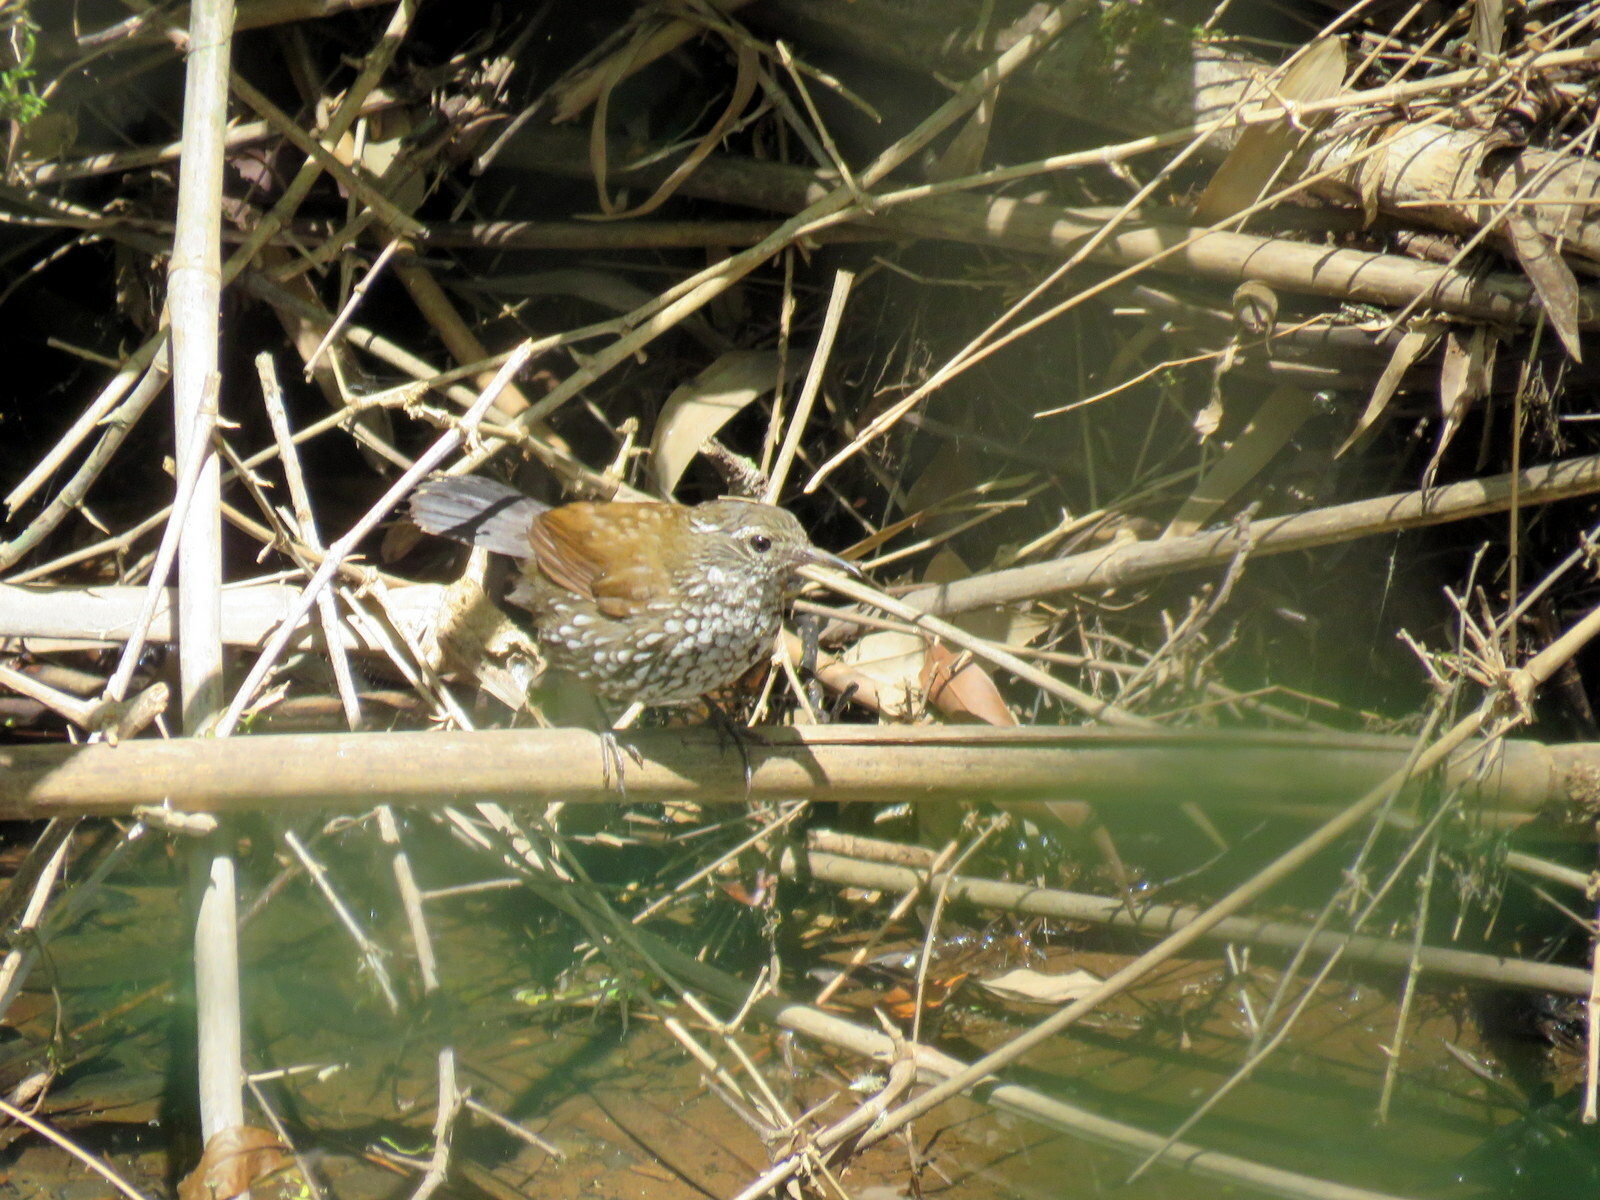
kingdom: Animalia
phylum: Chordata
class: Aves
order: Passeriformes
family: Furnariidae
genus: Lochmias
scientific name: Lochmias nematura
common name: Sharp-tailed streamcreeper
